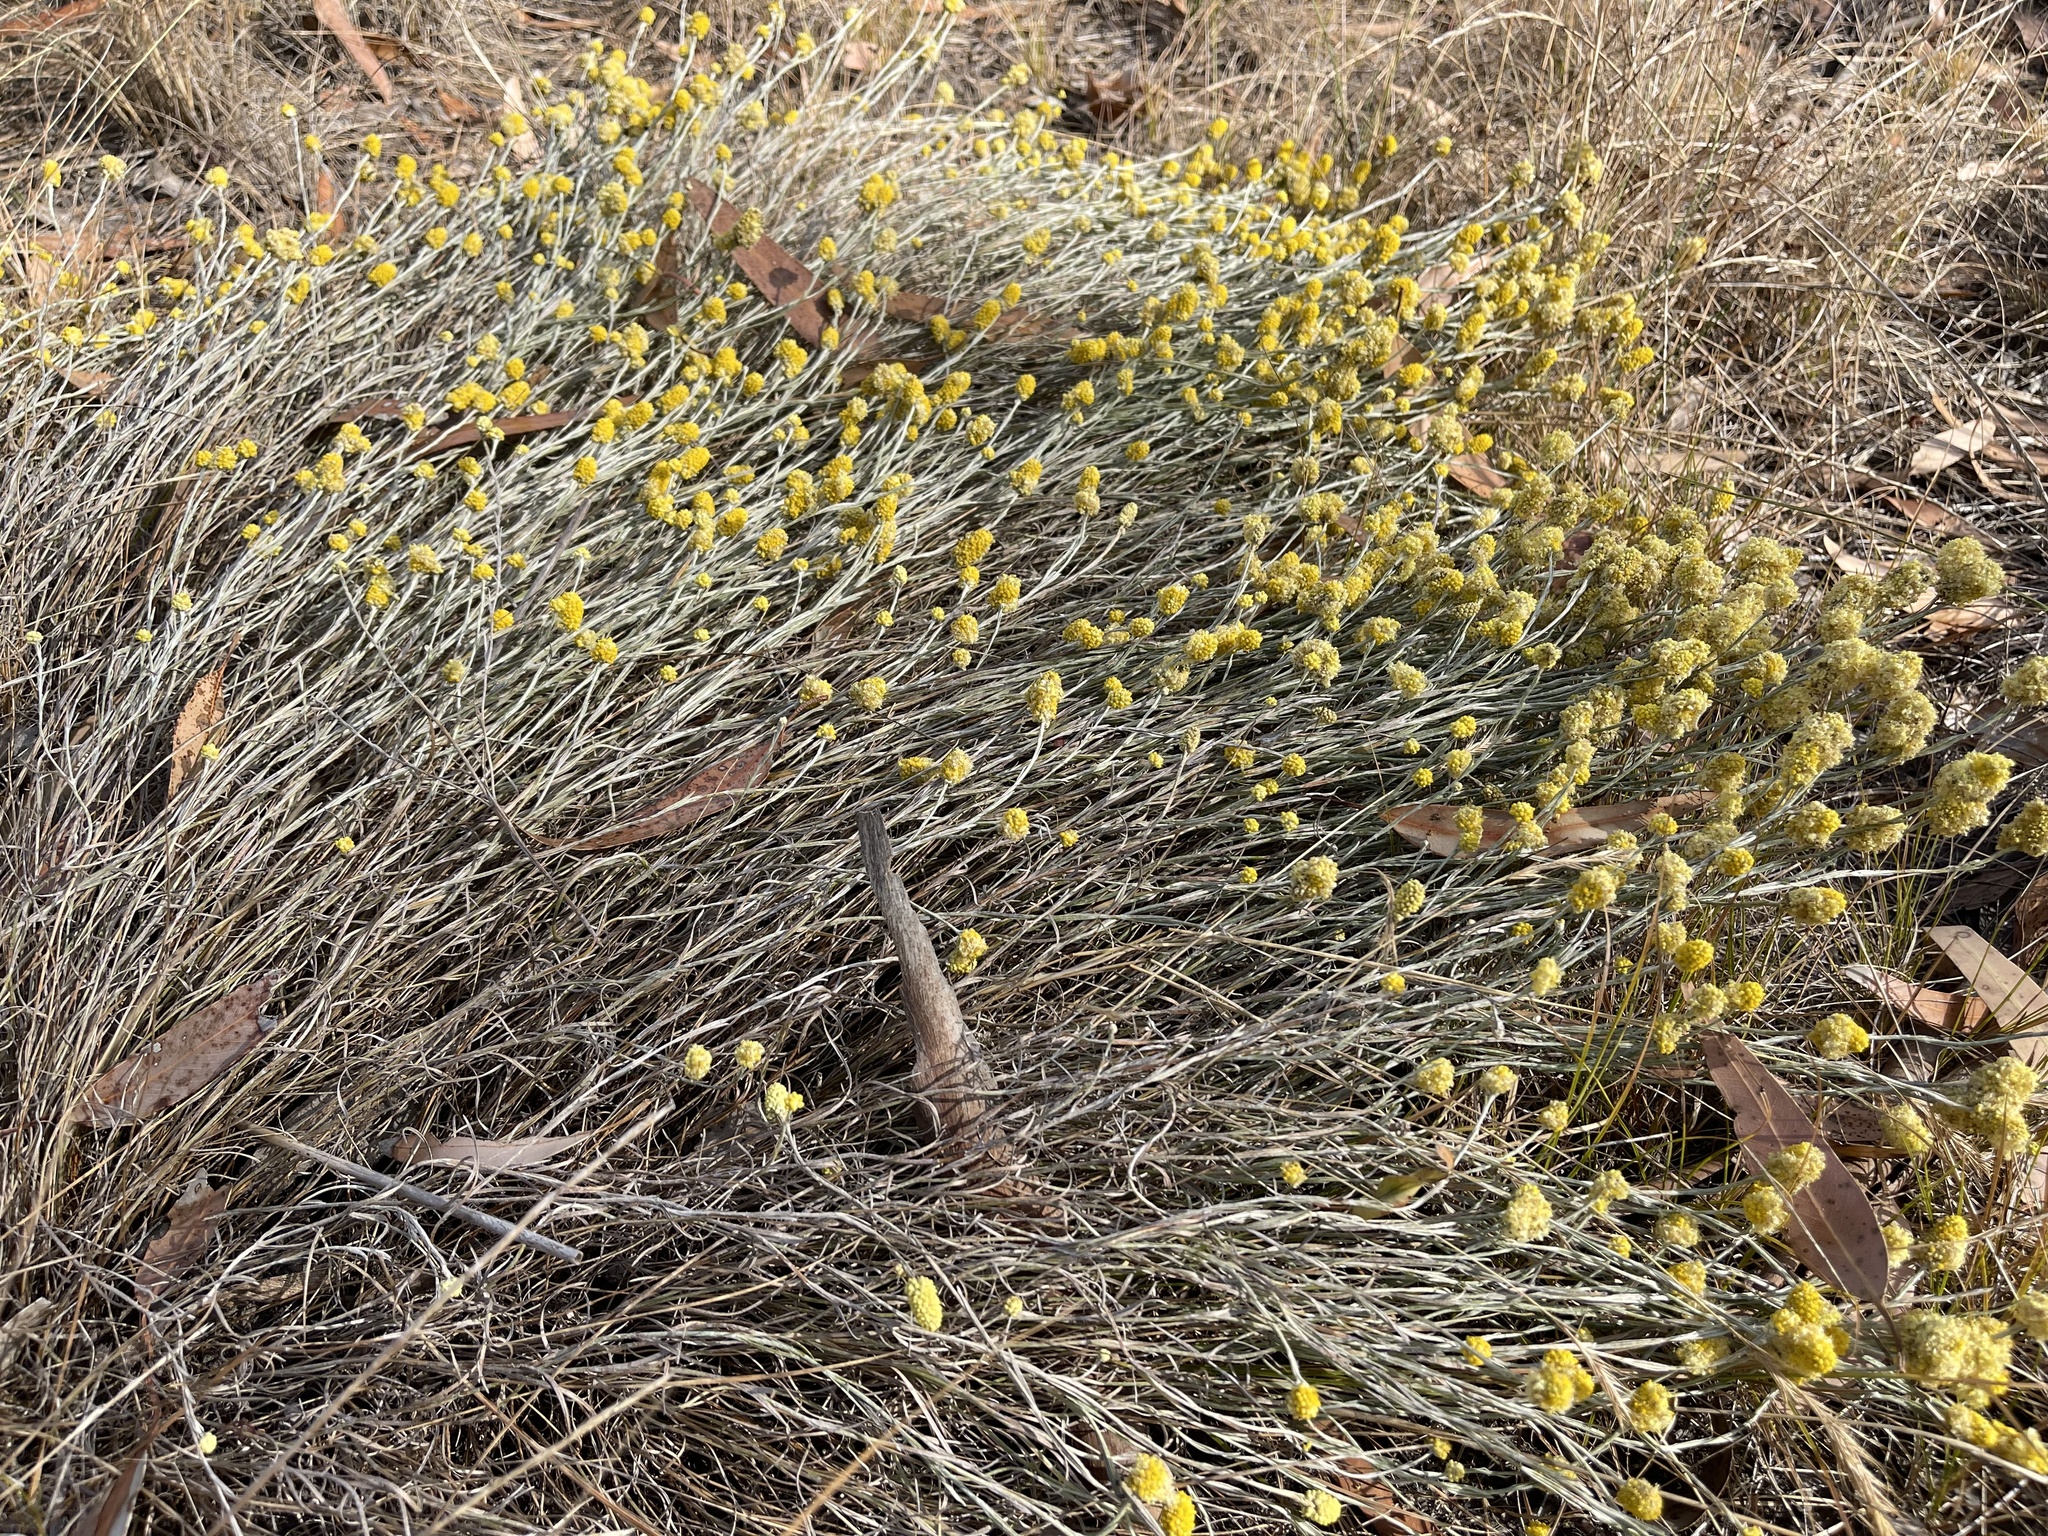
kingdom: Plantae
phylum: Tracheophyta
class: Magnoliopsida
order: Asterales
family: Asteraceae
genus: Calocephalus
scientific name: Calocephalus citreus
